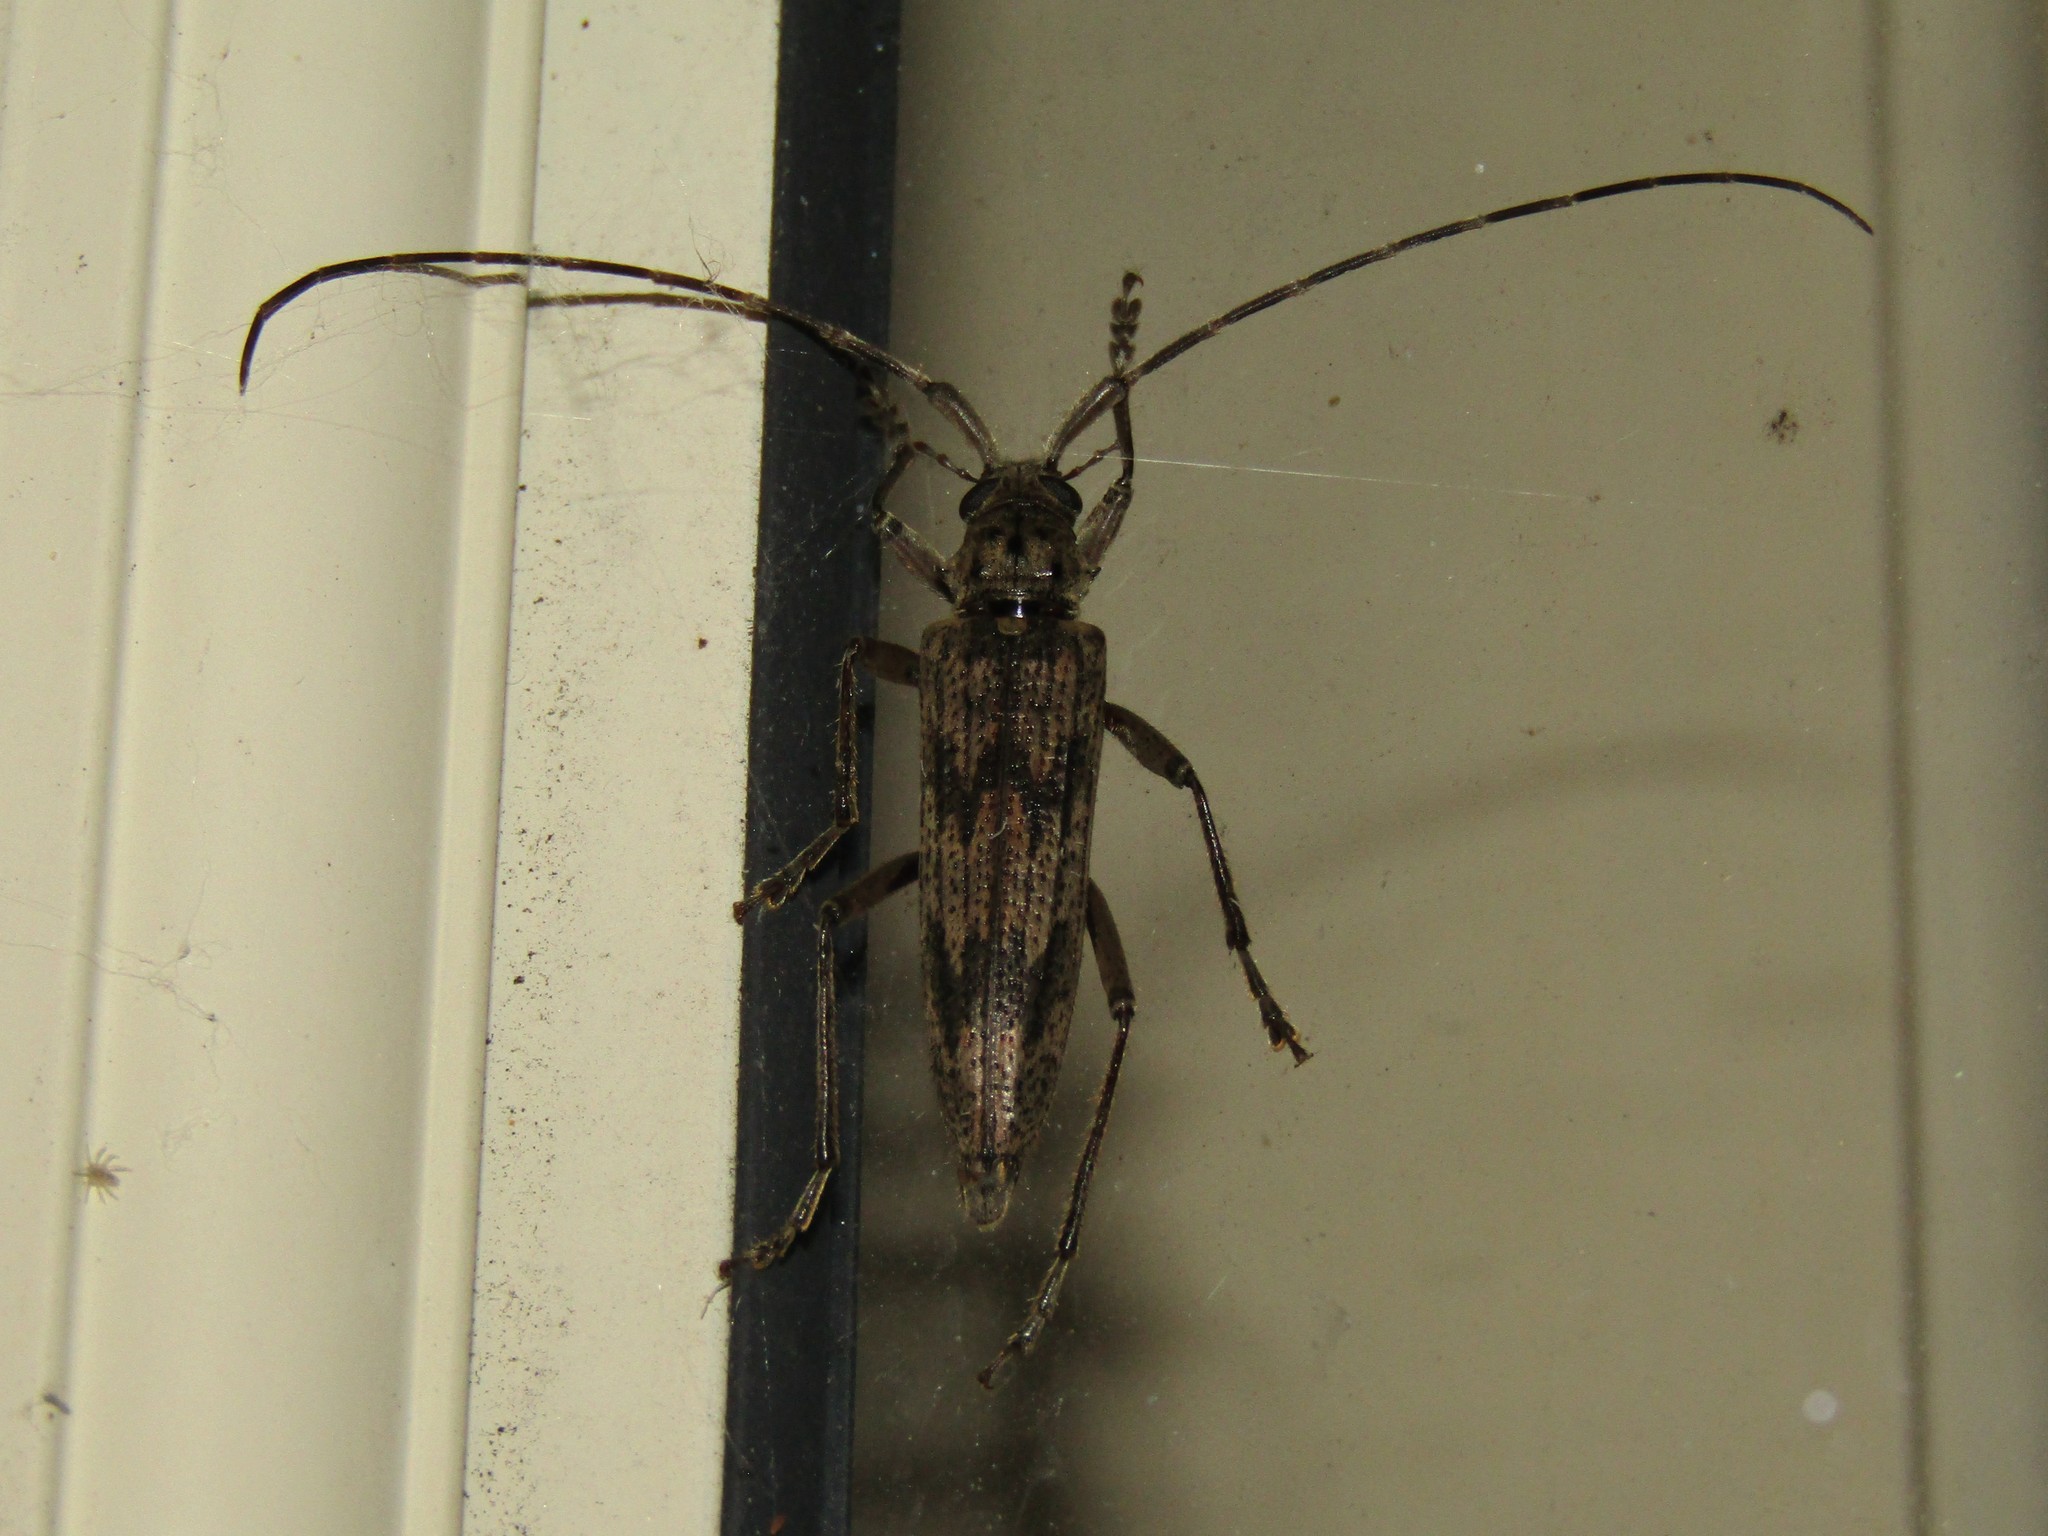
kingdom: Animalia
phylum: Arthropoda
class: Insecta
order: Coleoptera
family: Cerambycidae
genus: Elytrimitatrix
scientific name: Elytrimitatrix undata
